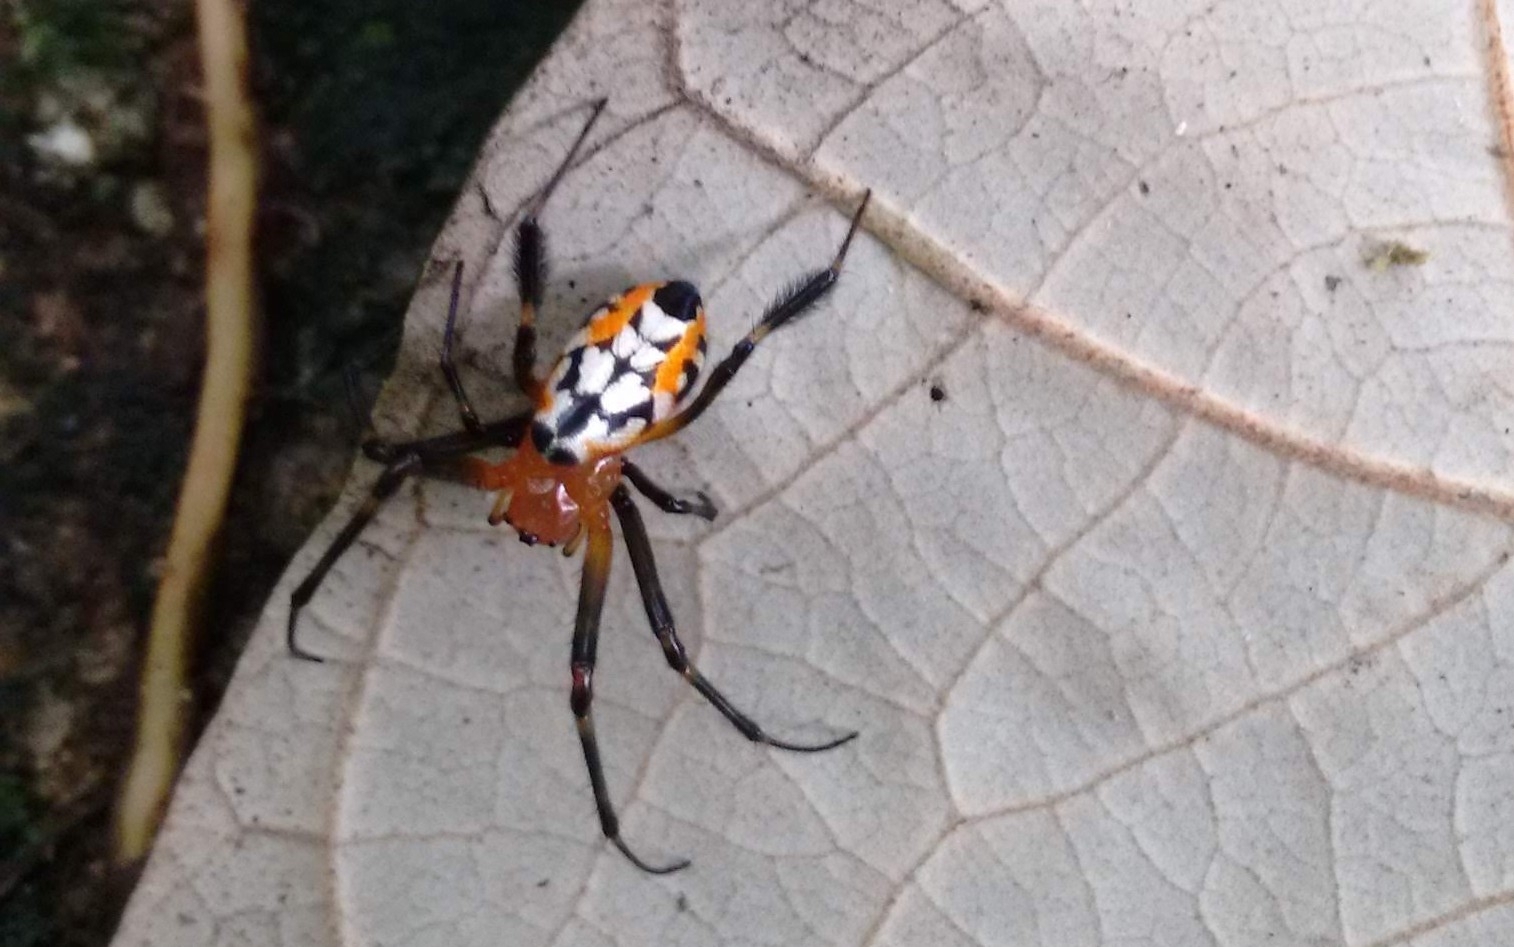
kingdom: Animalia
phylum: Arthropoda
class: Arachnida
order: Araneae
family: Tetragnathidae
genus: Leucauge
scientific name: Leucauge fastigata
